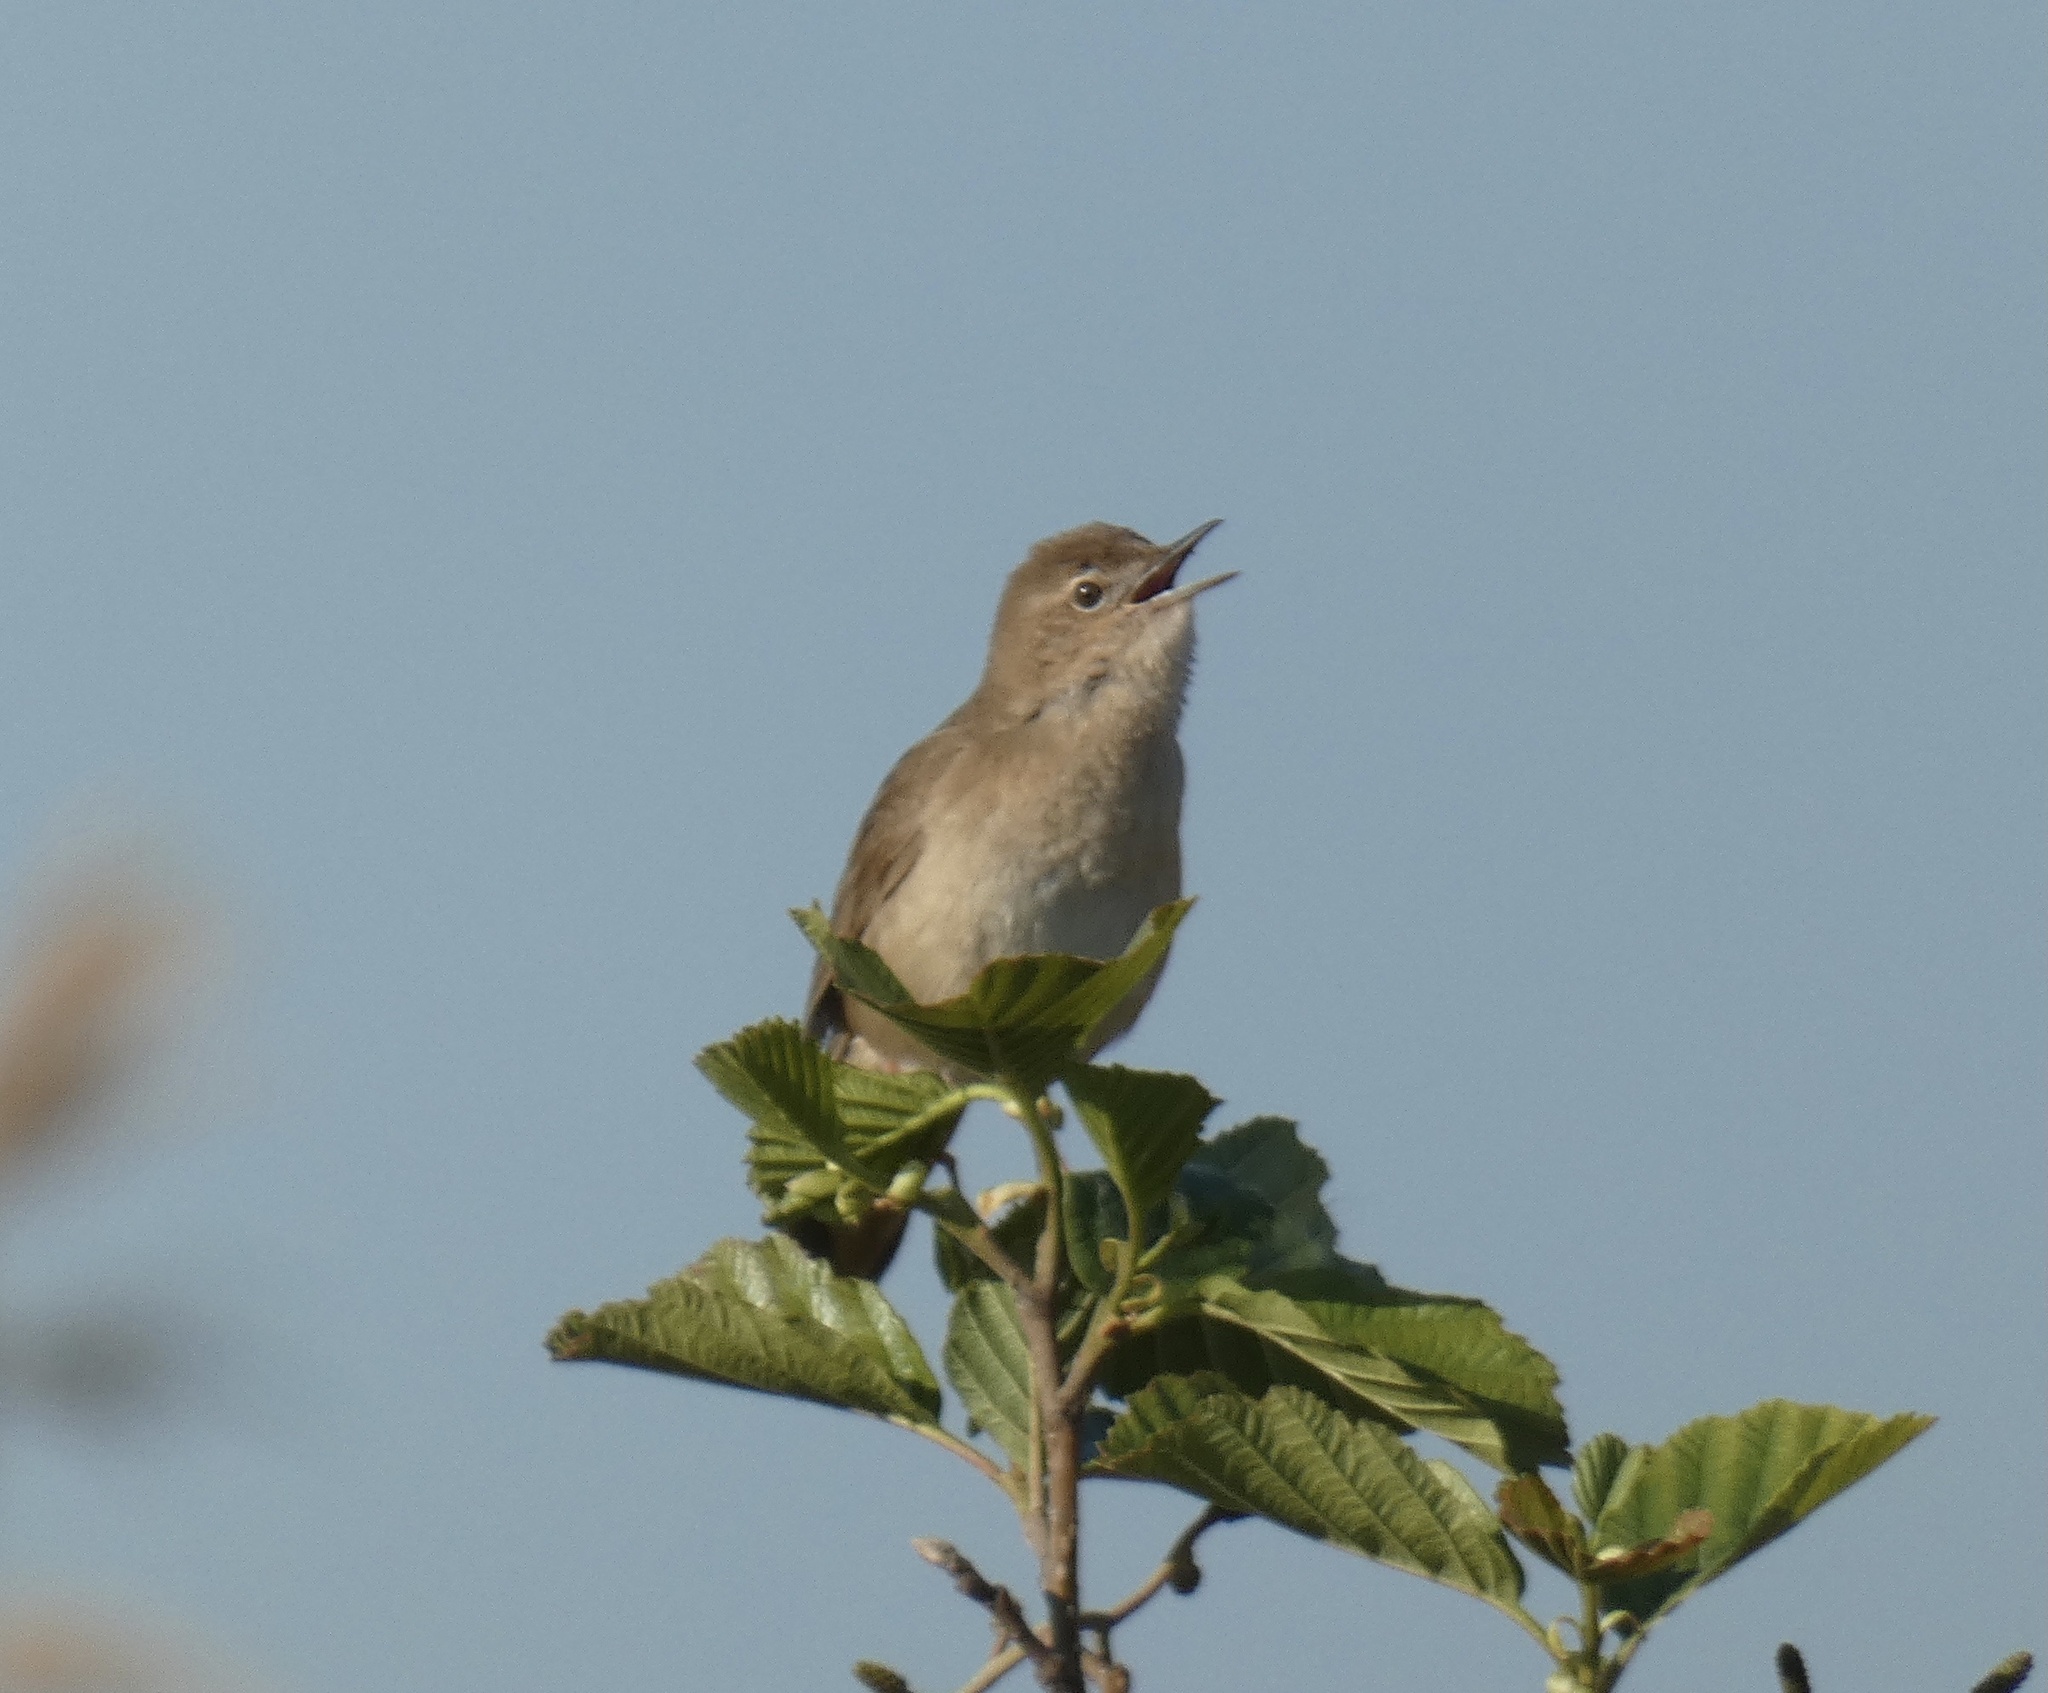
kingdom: Animalia
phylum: Chordata
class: Aves
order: Passeriformes
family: Locustellidae
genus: Locustella
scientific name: Locustella luscinioides
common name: Savi's warbler
